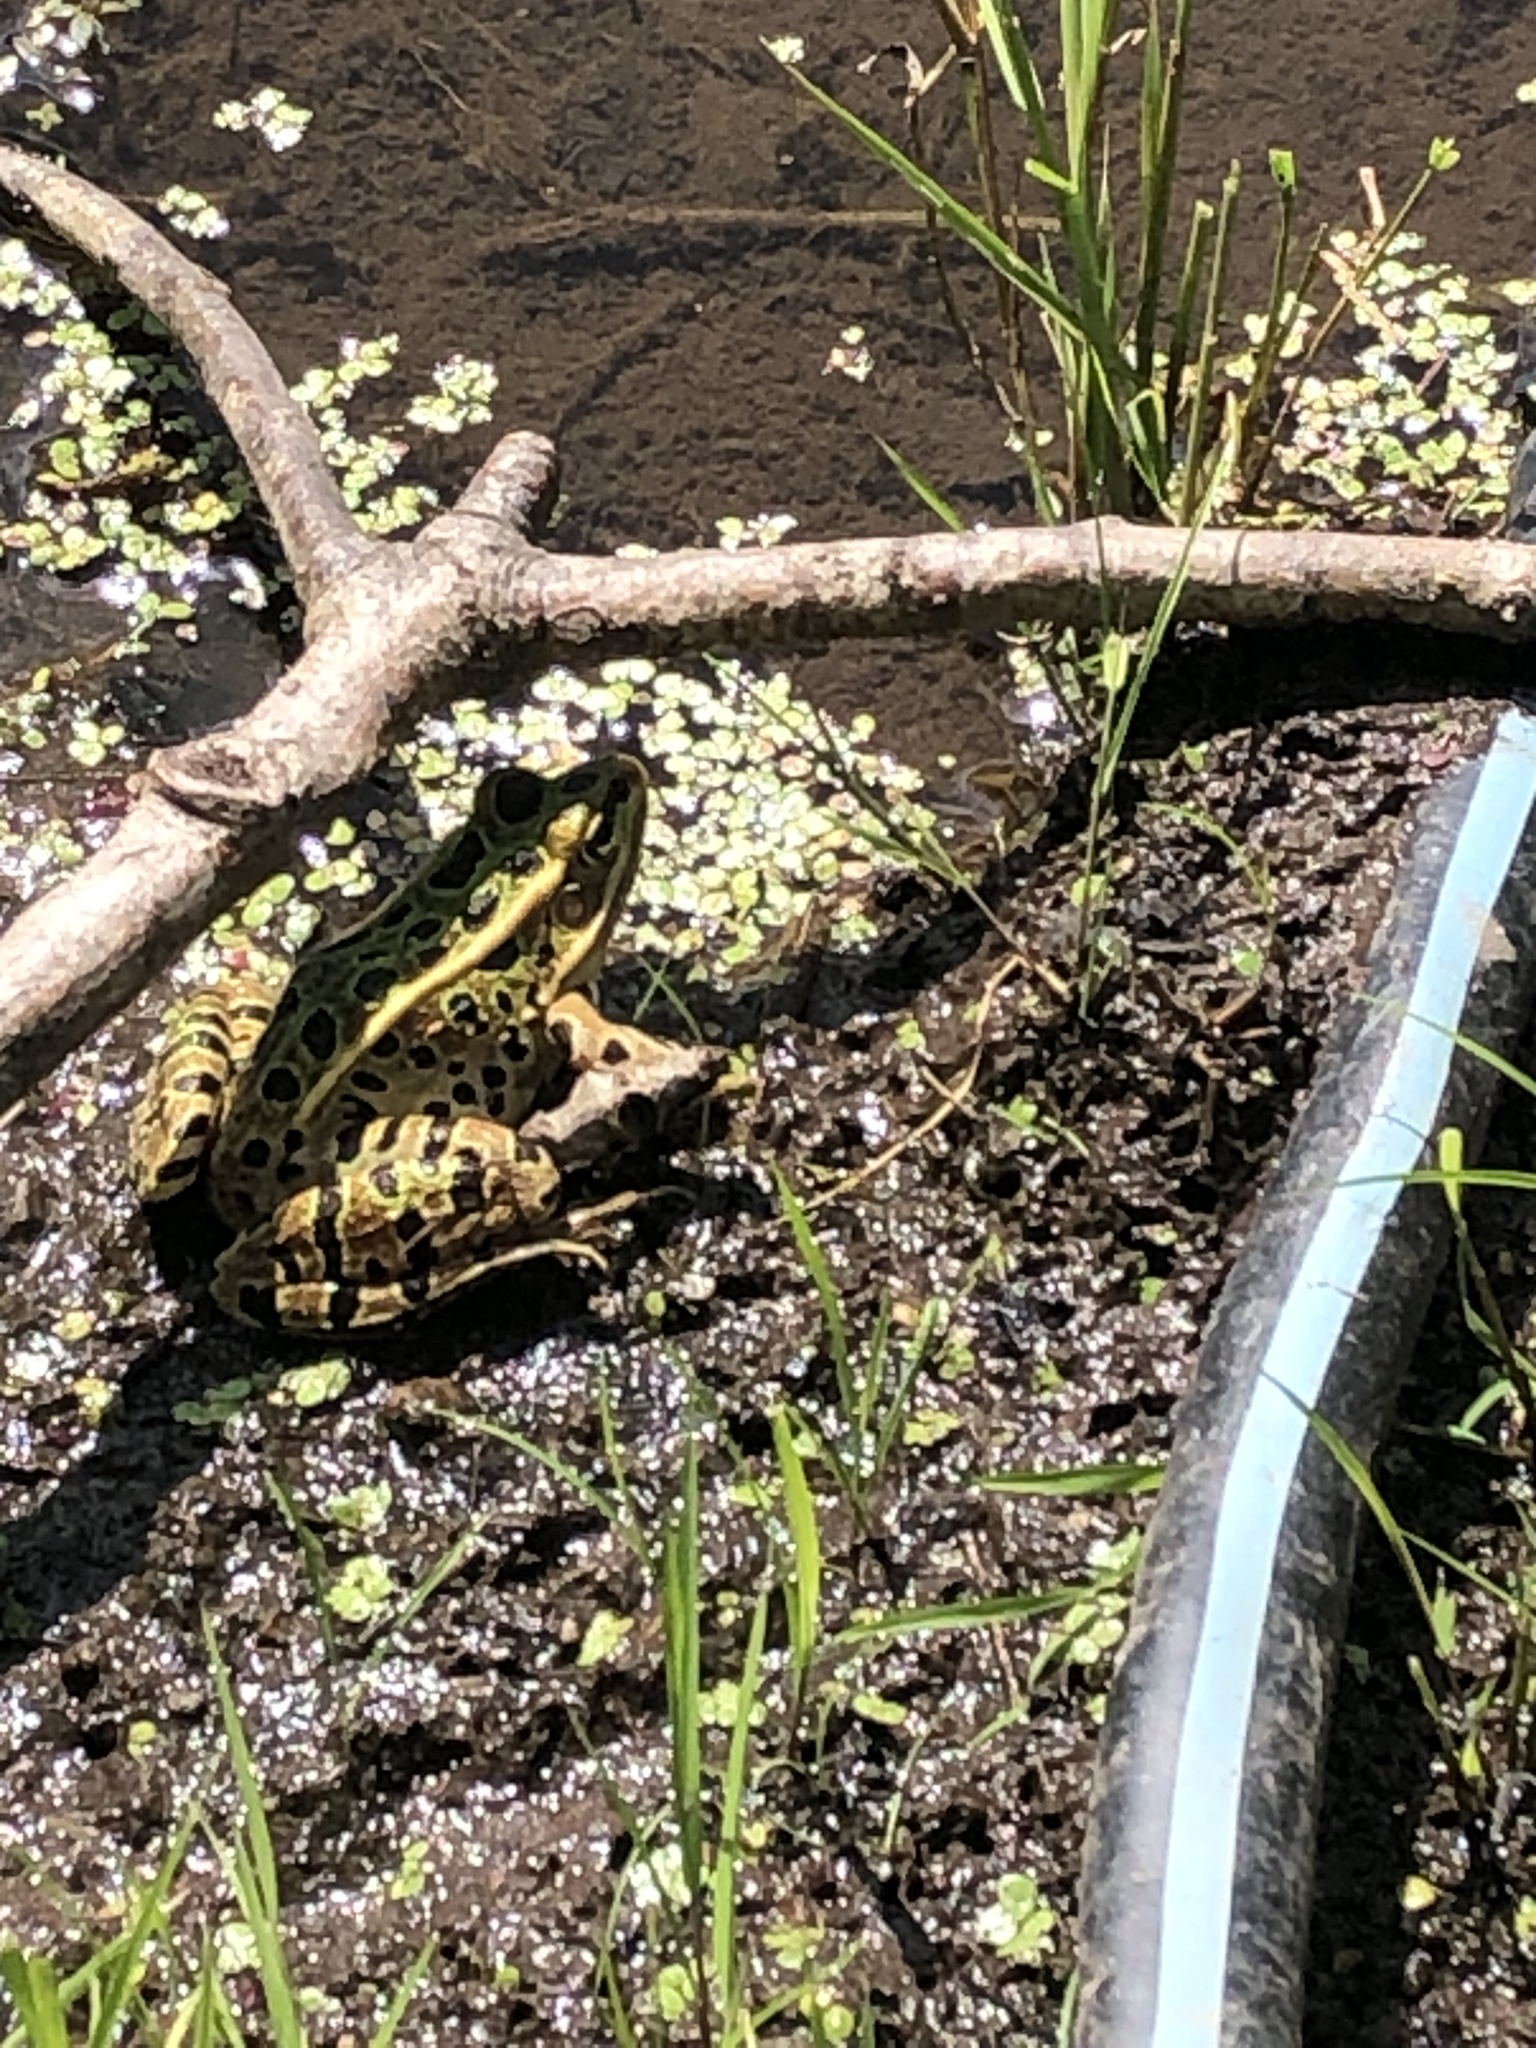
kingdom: Animalia
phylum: Chordata
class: Amphibia
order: Anura
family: Ranidae
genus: Lithobates
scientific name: Lithobates pipiens
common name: Northern leopard frog
